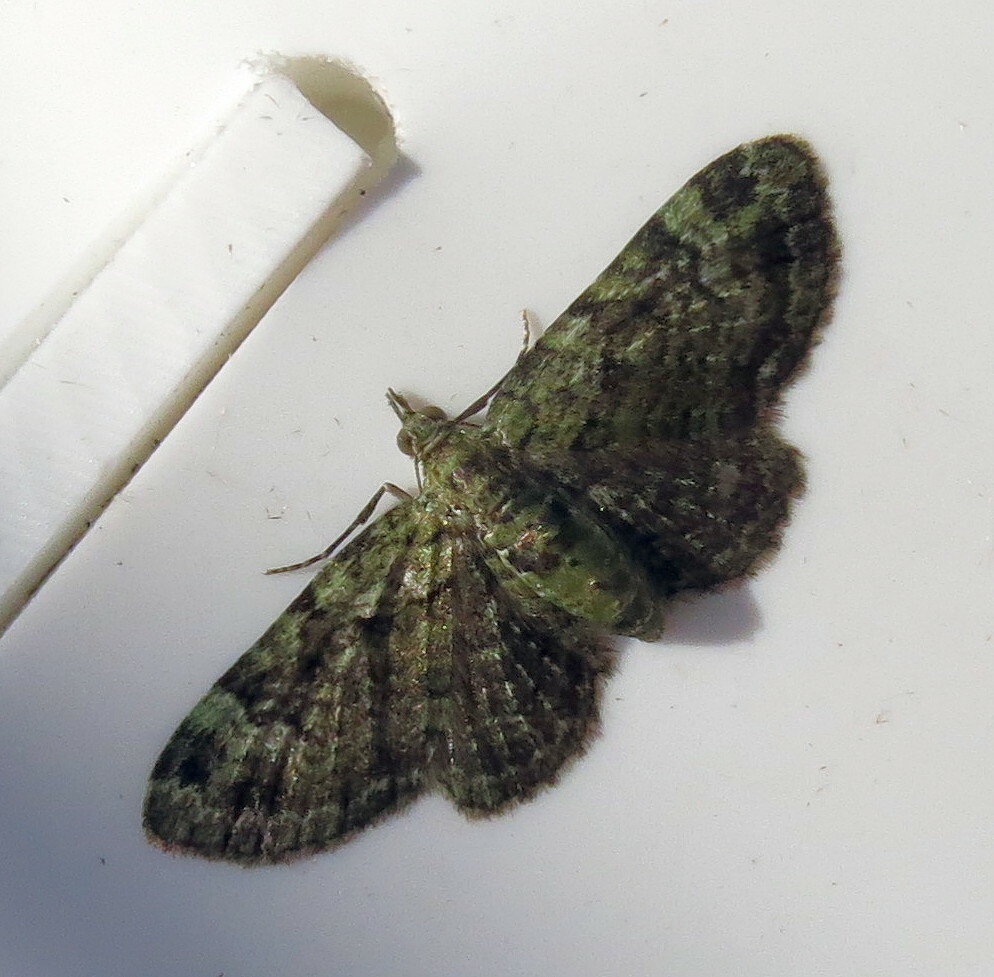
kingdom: Animalia
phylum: Arthropoda
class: Insecta
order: Lepidoptera
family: Geometridae
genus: Pasiphila
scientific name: Pasiphila rectangulata
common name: Green pug
